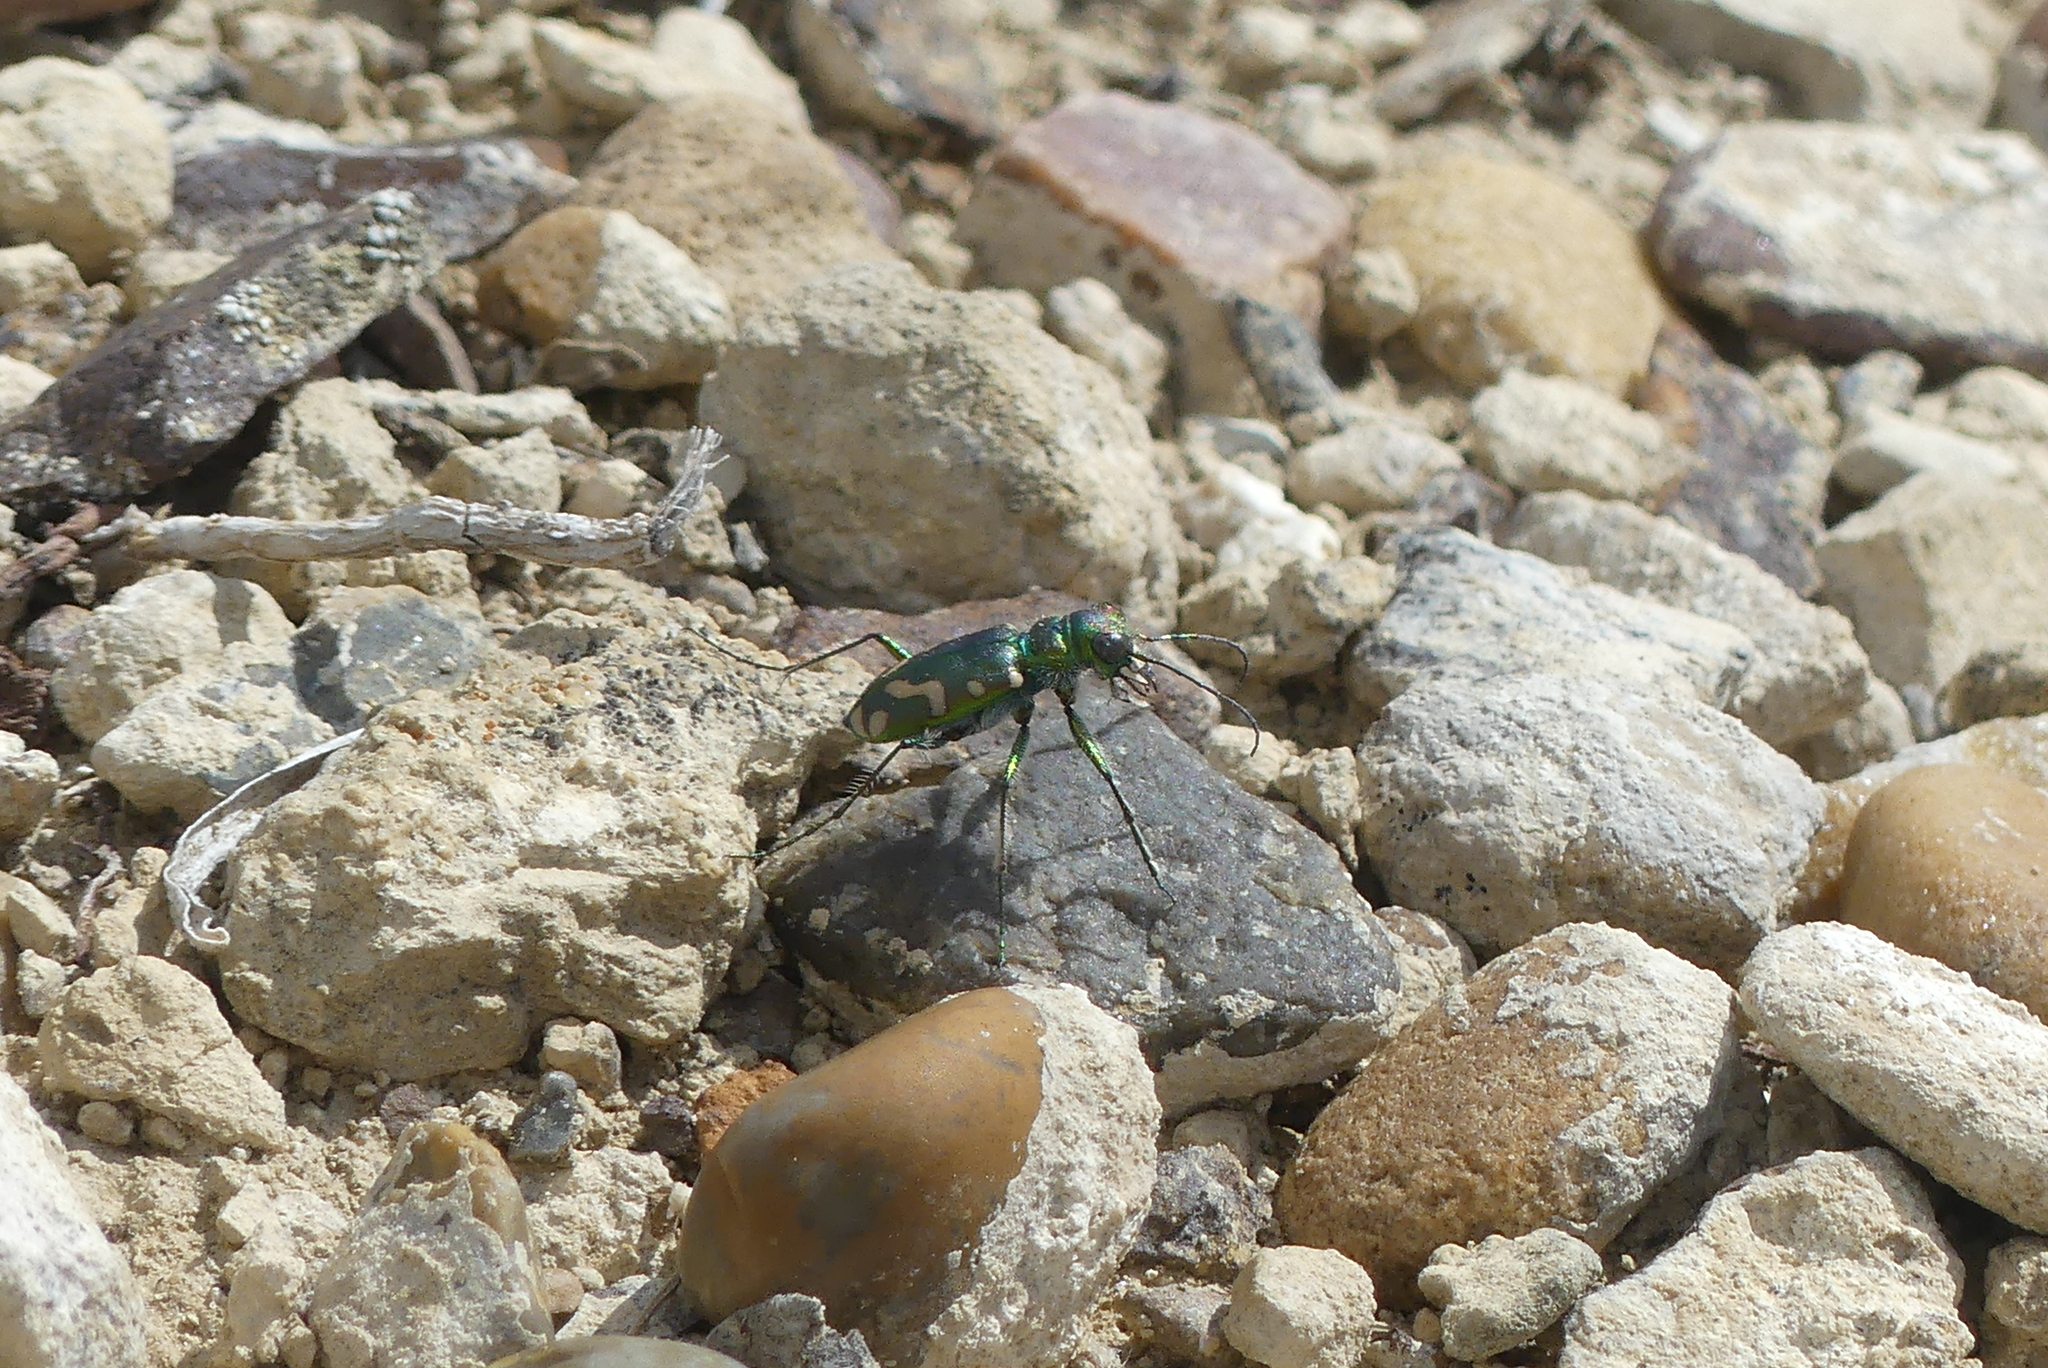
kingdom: Animalia
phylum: Arthropoda
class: Insecta
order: Coleoptera
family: Carabidae
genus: Cicindela
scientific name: Cicindela decemnotata
